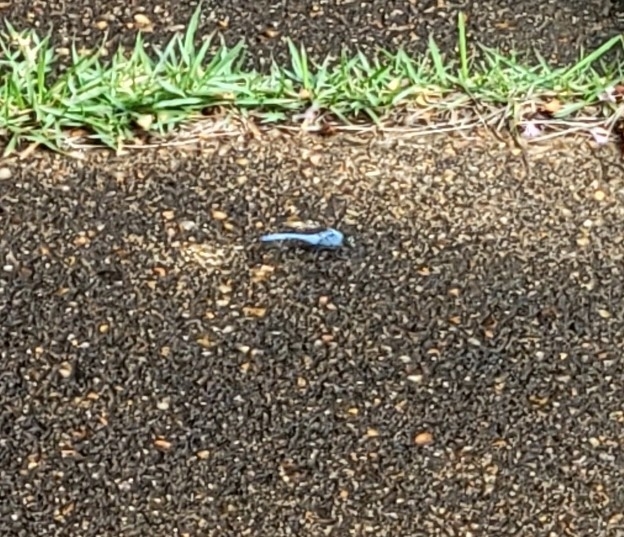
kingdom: Animalia
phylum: Arthropoda
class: Insecta
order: Odonata
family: Libellulidae
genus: Erythemis
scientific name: Erythemis simplicicollis
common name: Eastern pondhawk
